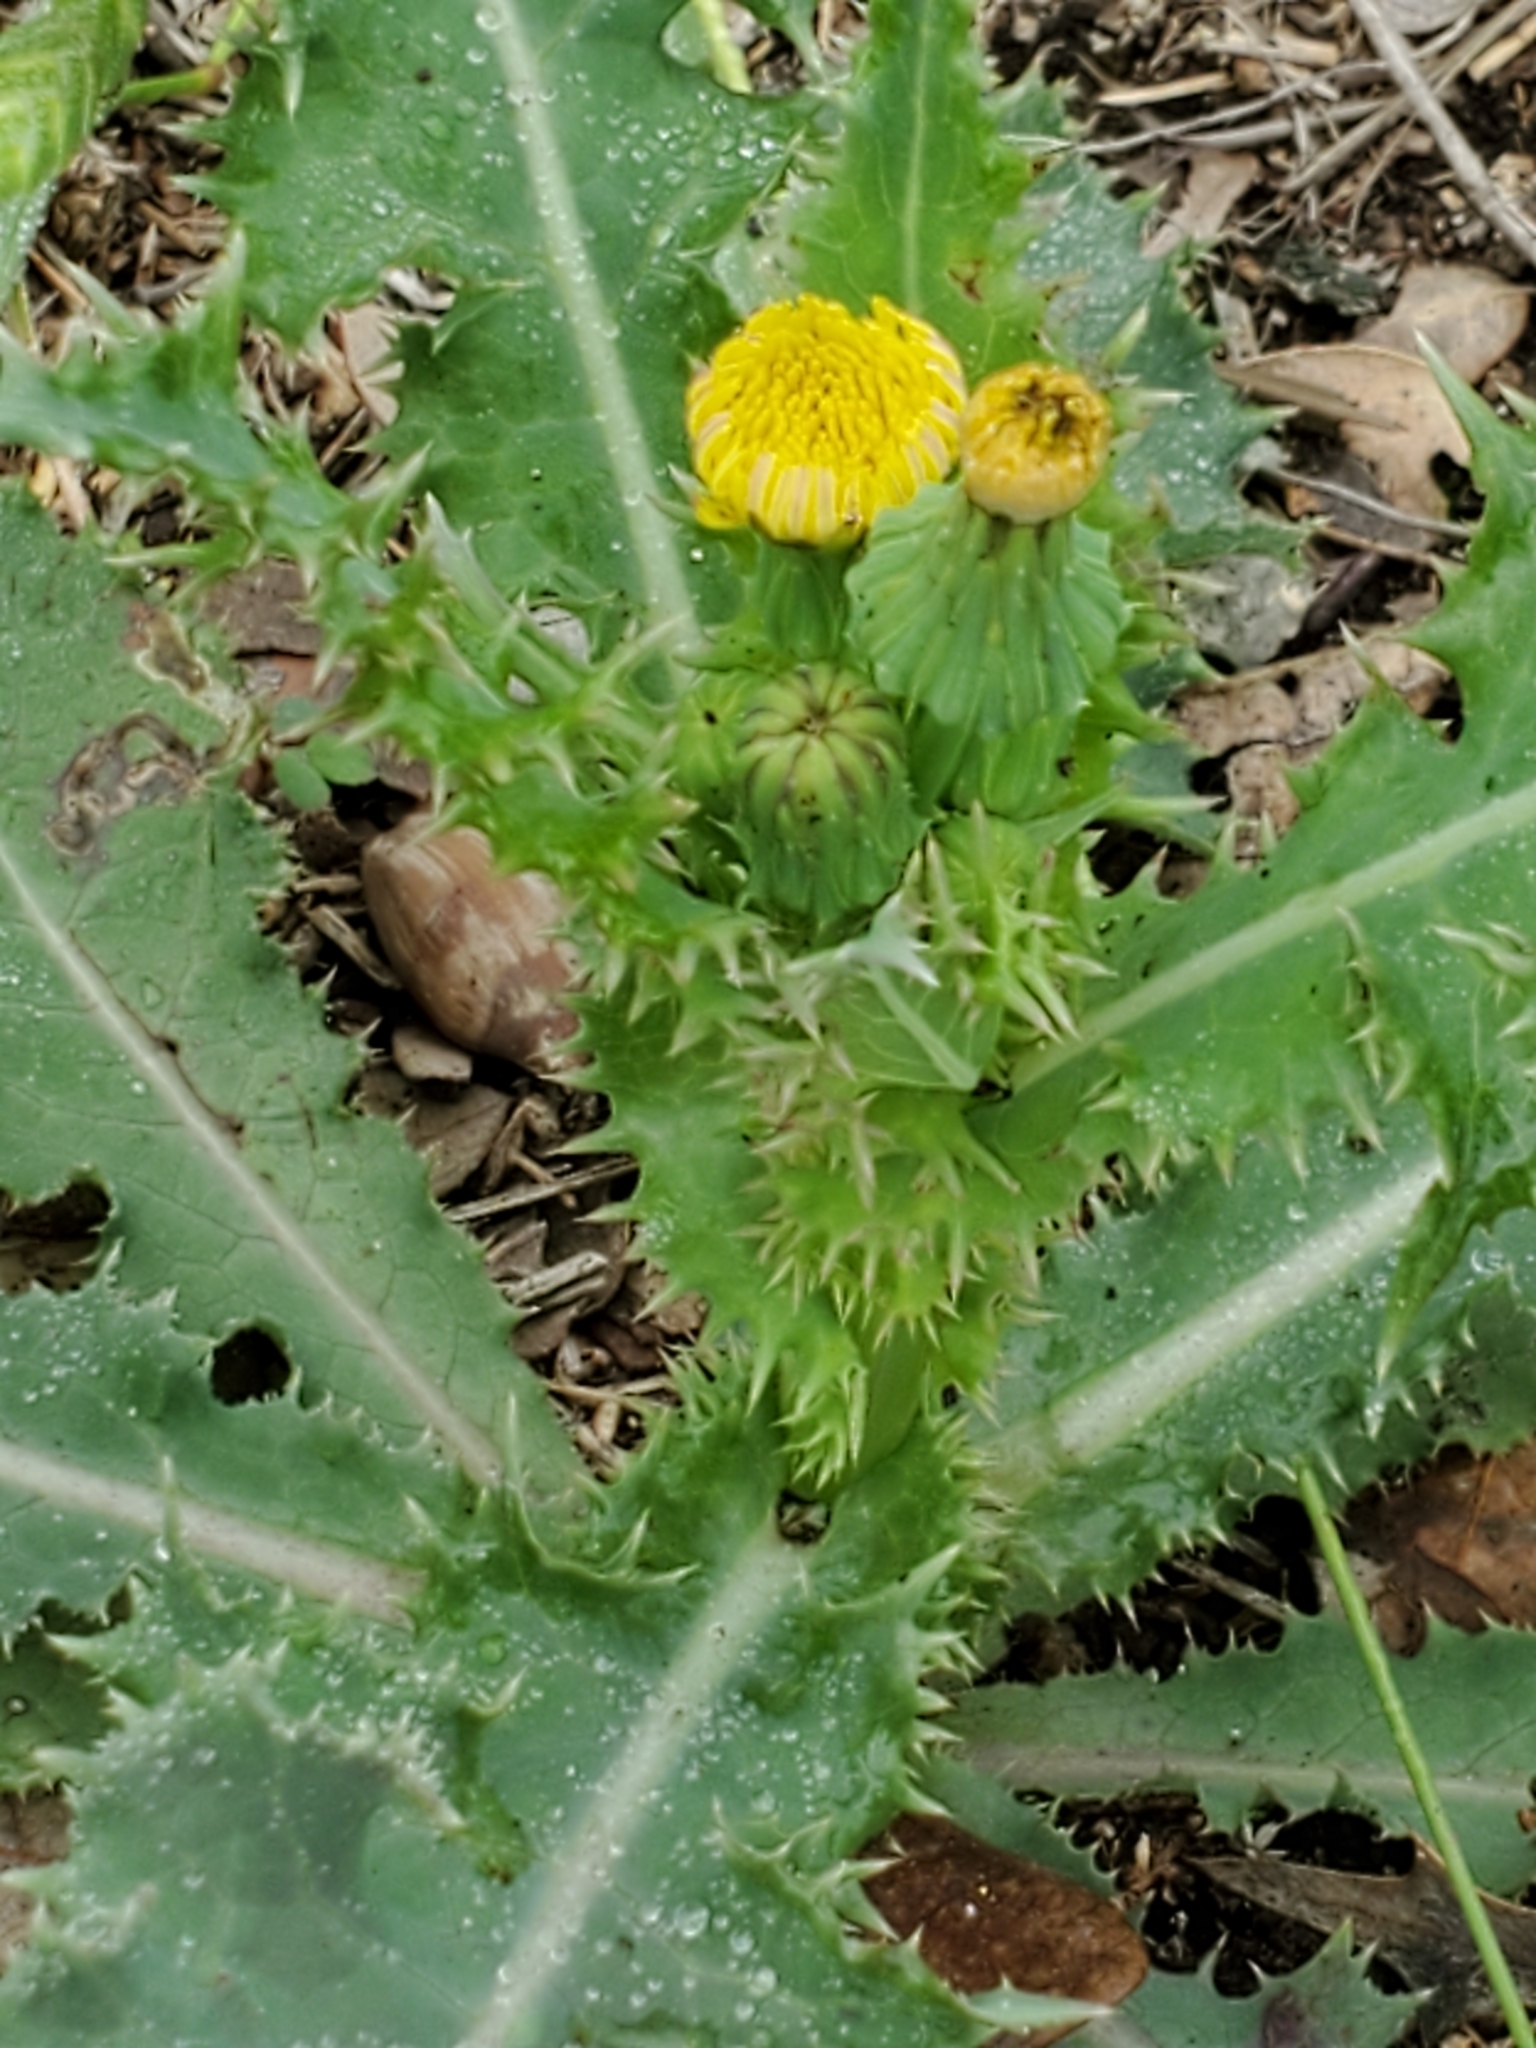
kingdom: Plantae
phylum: Tracheophyta
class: Magnoliopsida
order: Asterales
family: Asteraceae
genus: Sonchus
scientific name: Sonchus asper
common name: Prickly sow-thistle
